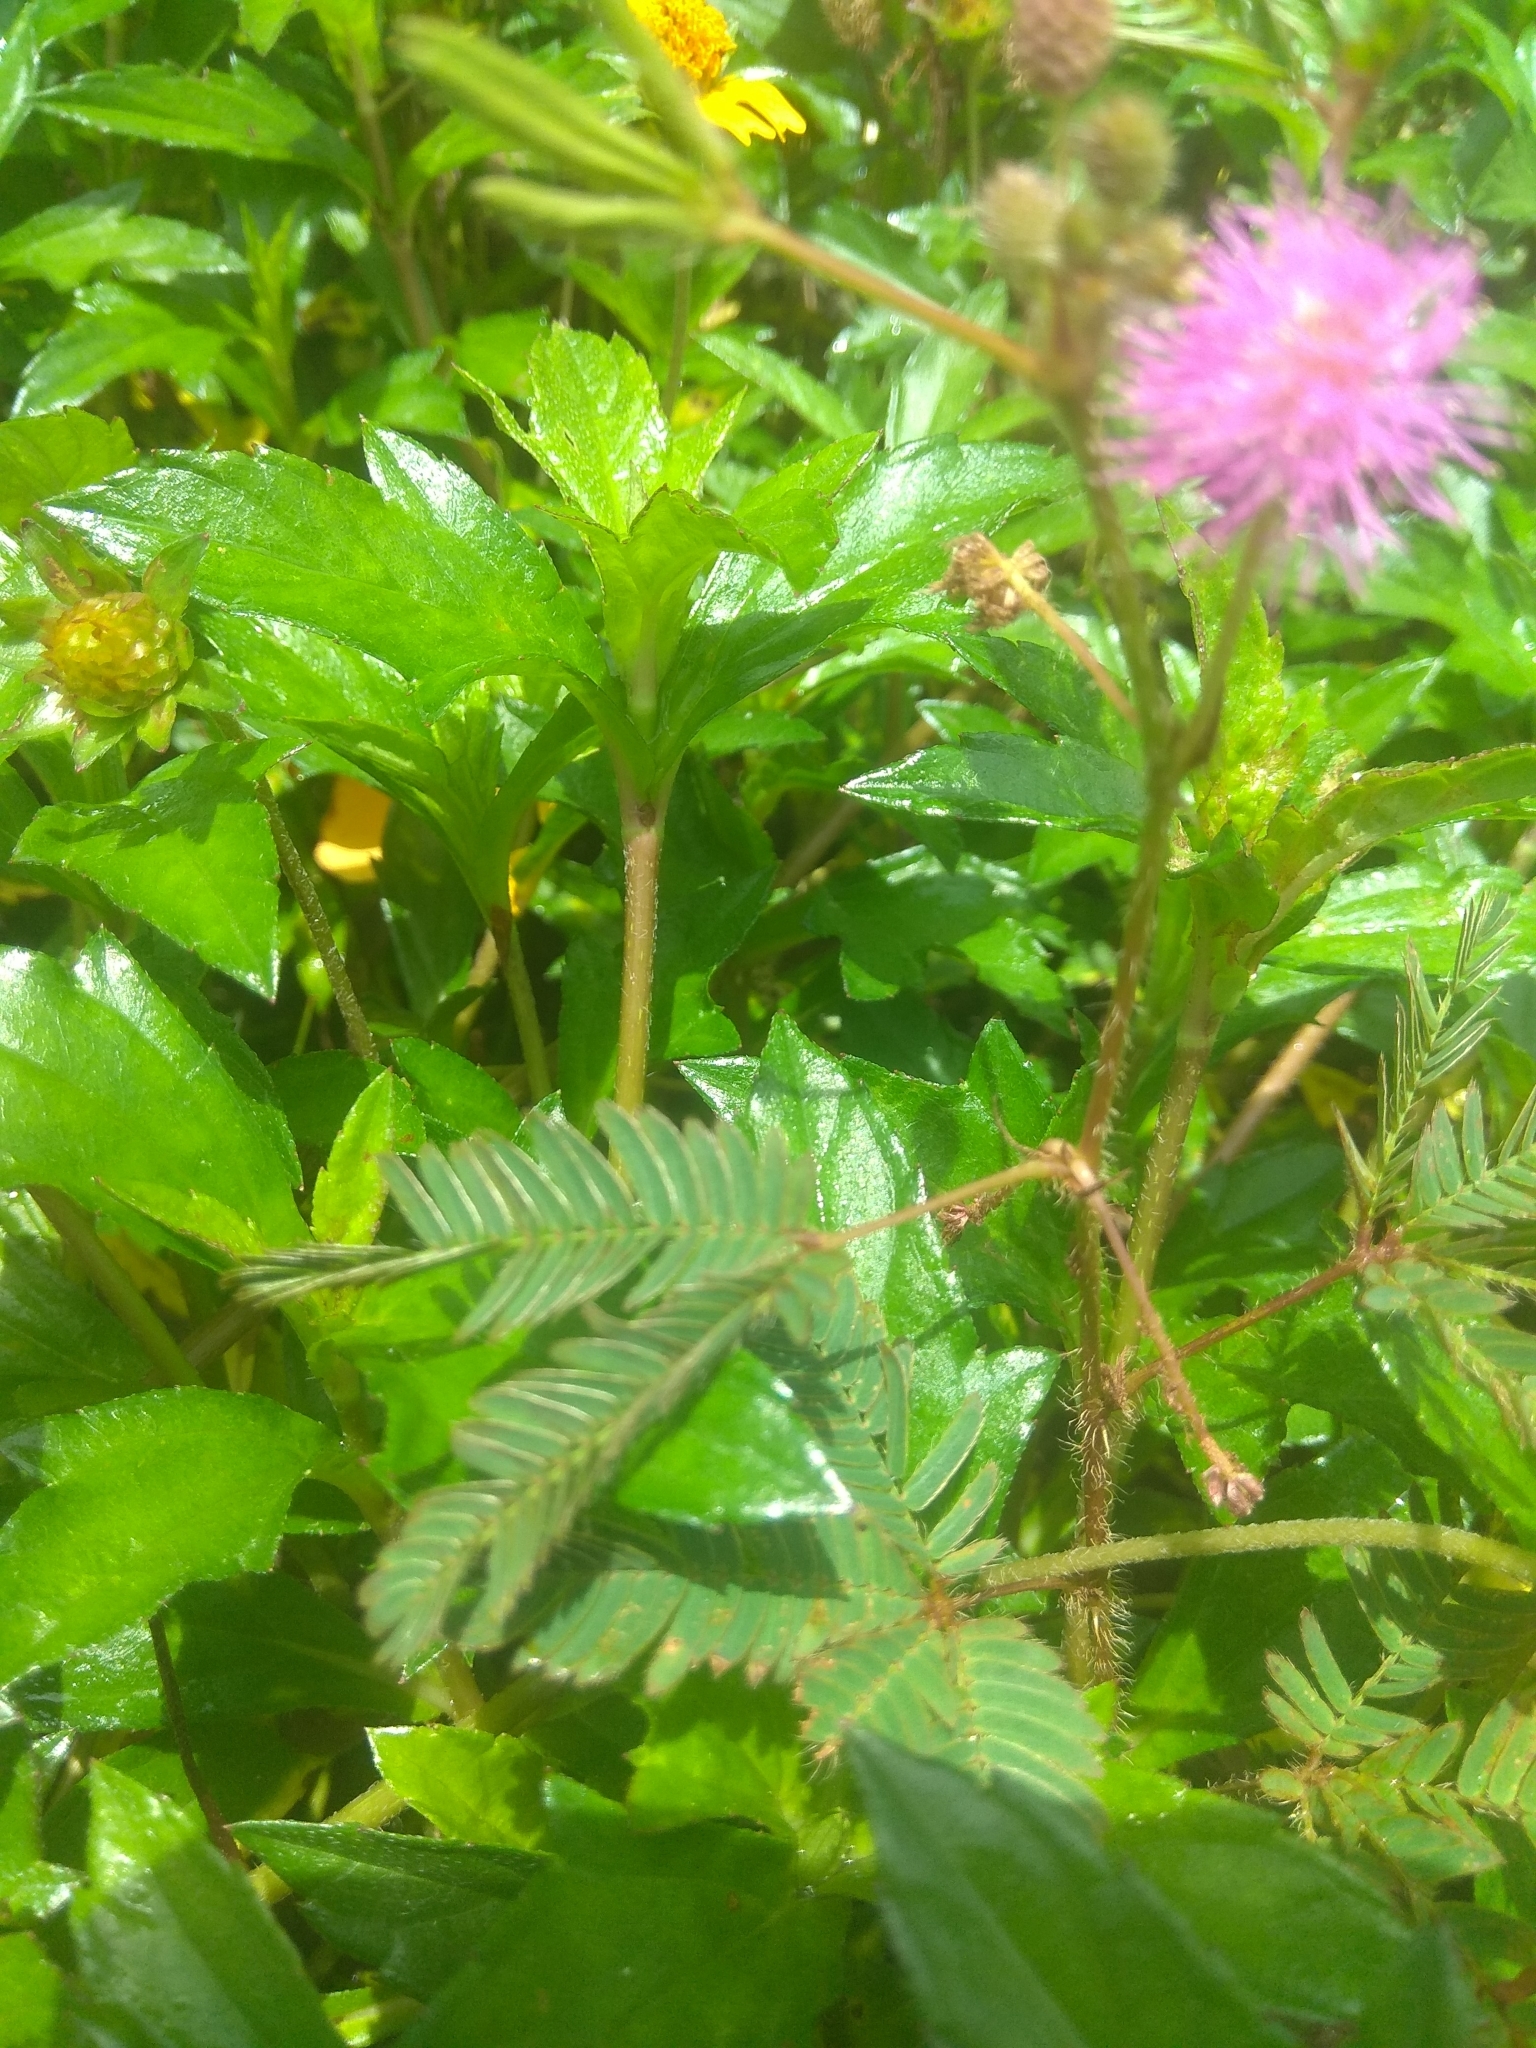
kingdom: Plantae
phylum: Tracheophyta
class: Magnoliopsida
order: Fabales
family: Fabaceae
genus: Mimosa
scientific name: Mimosa pudica
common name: Sensitive plant
